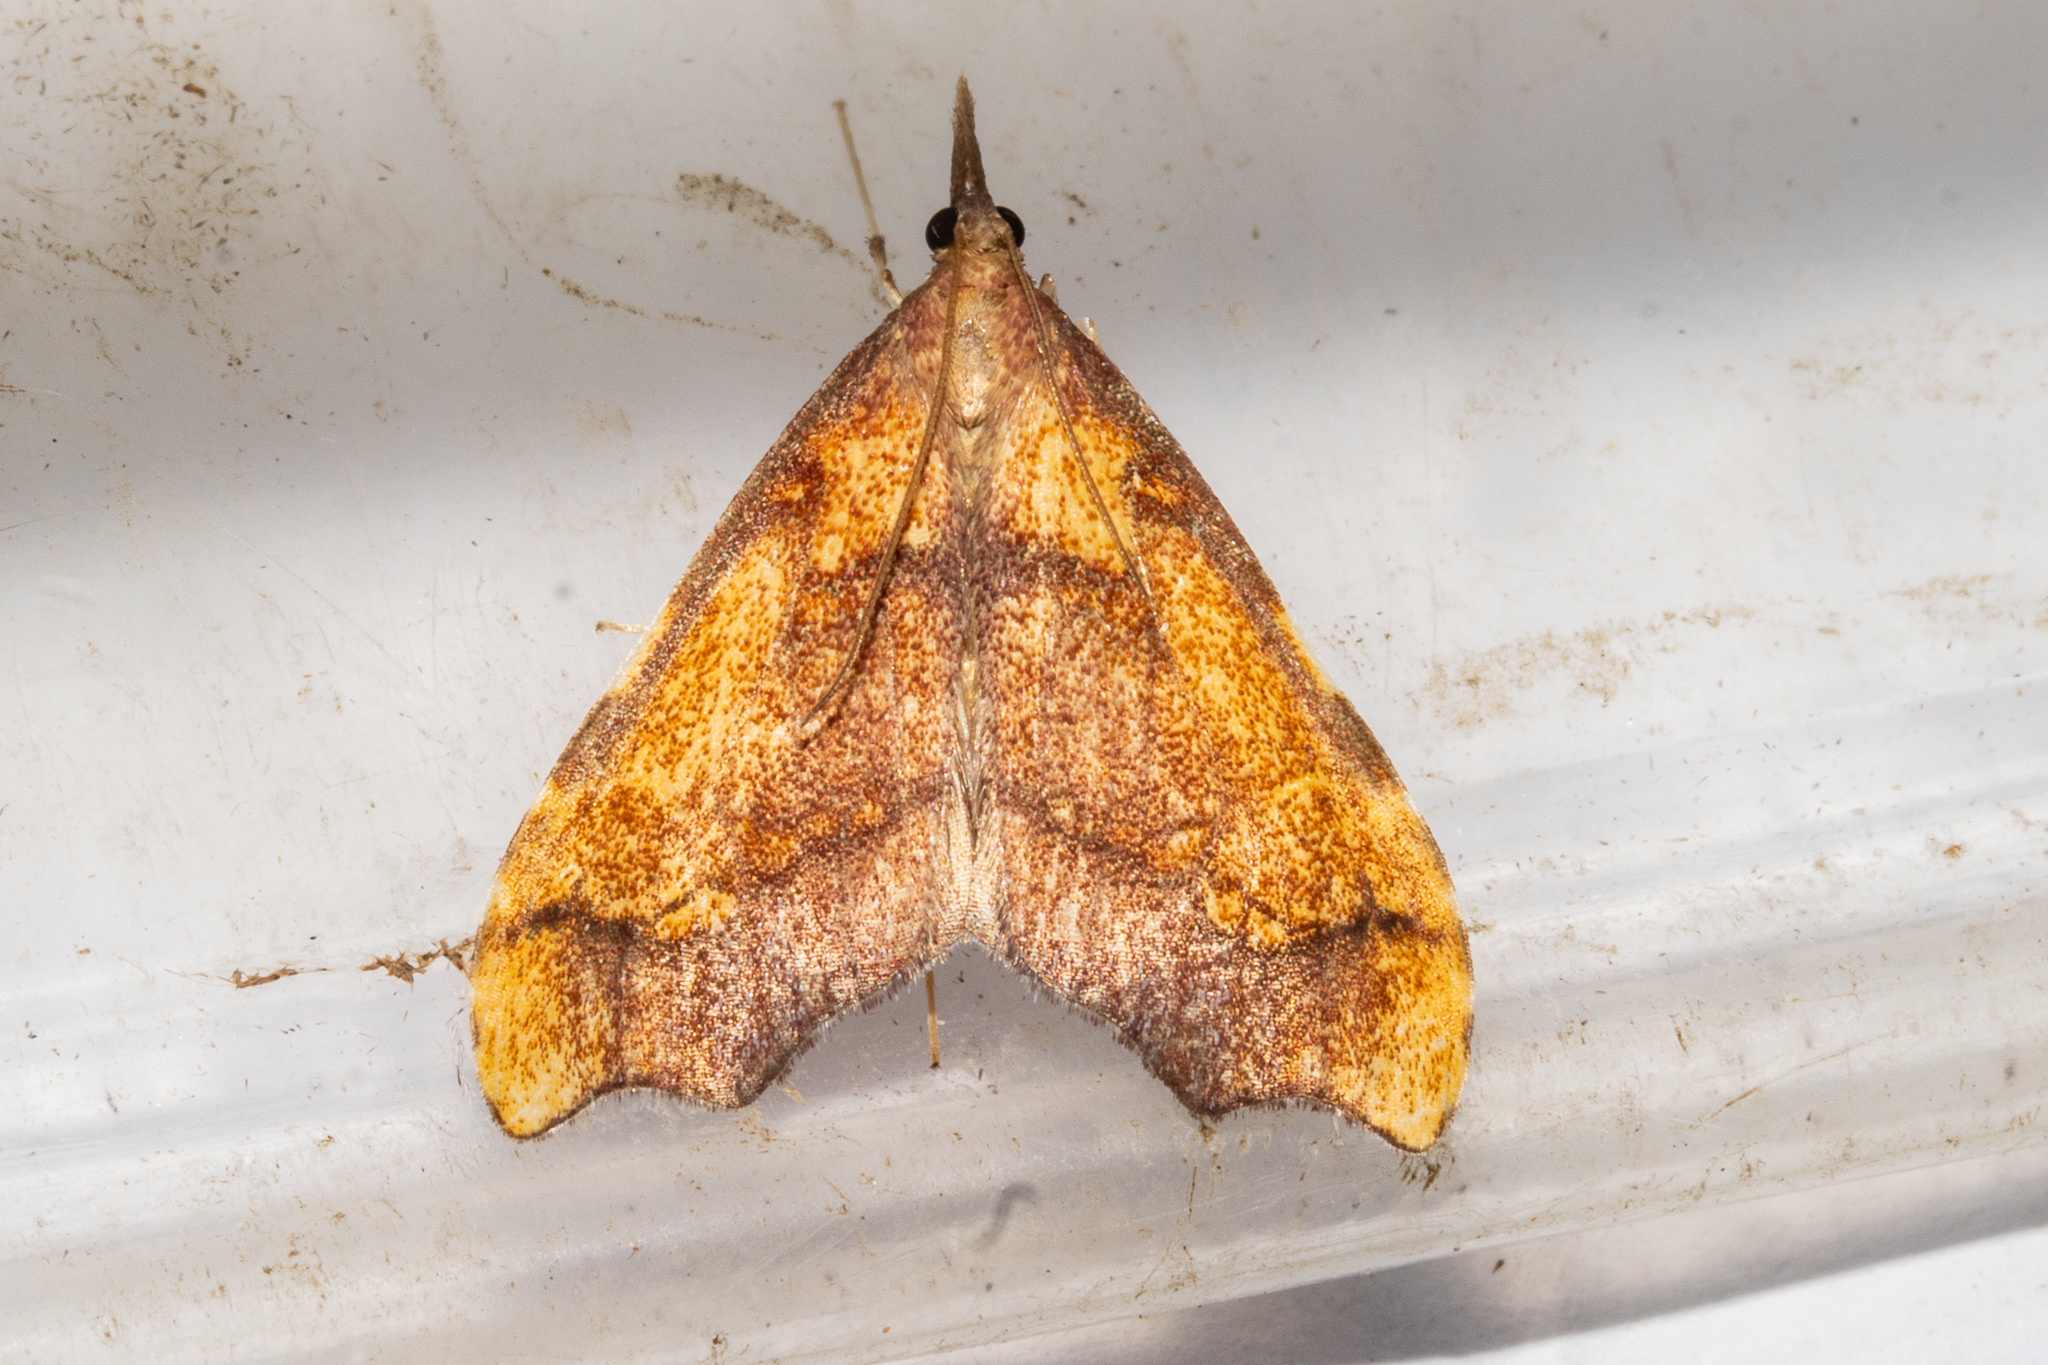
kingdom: Animalia
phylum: Arthropoda
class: Insecta
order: Lepidoptera
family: Crambidae
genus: Deana
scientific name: Deana hybreasalis
